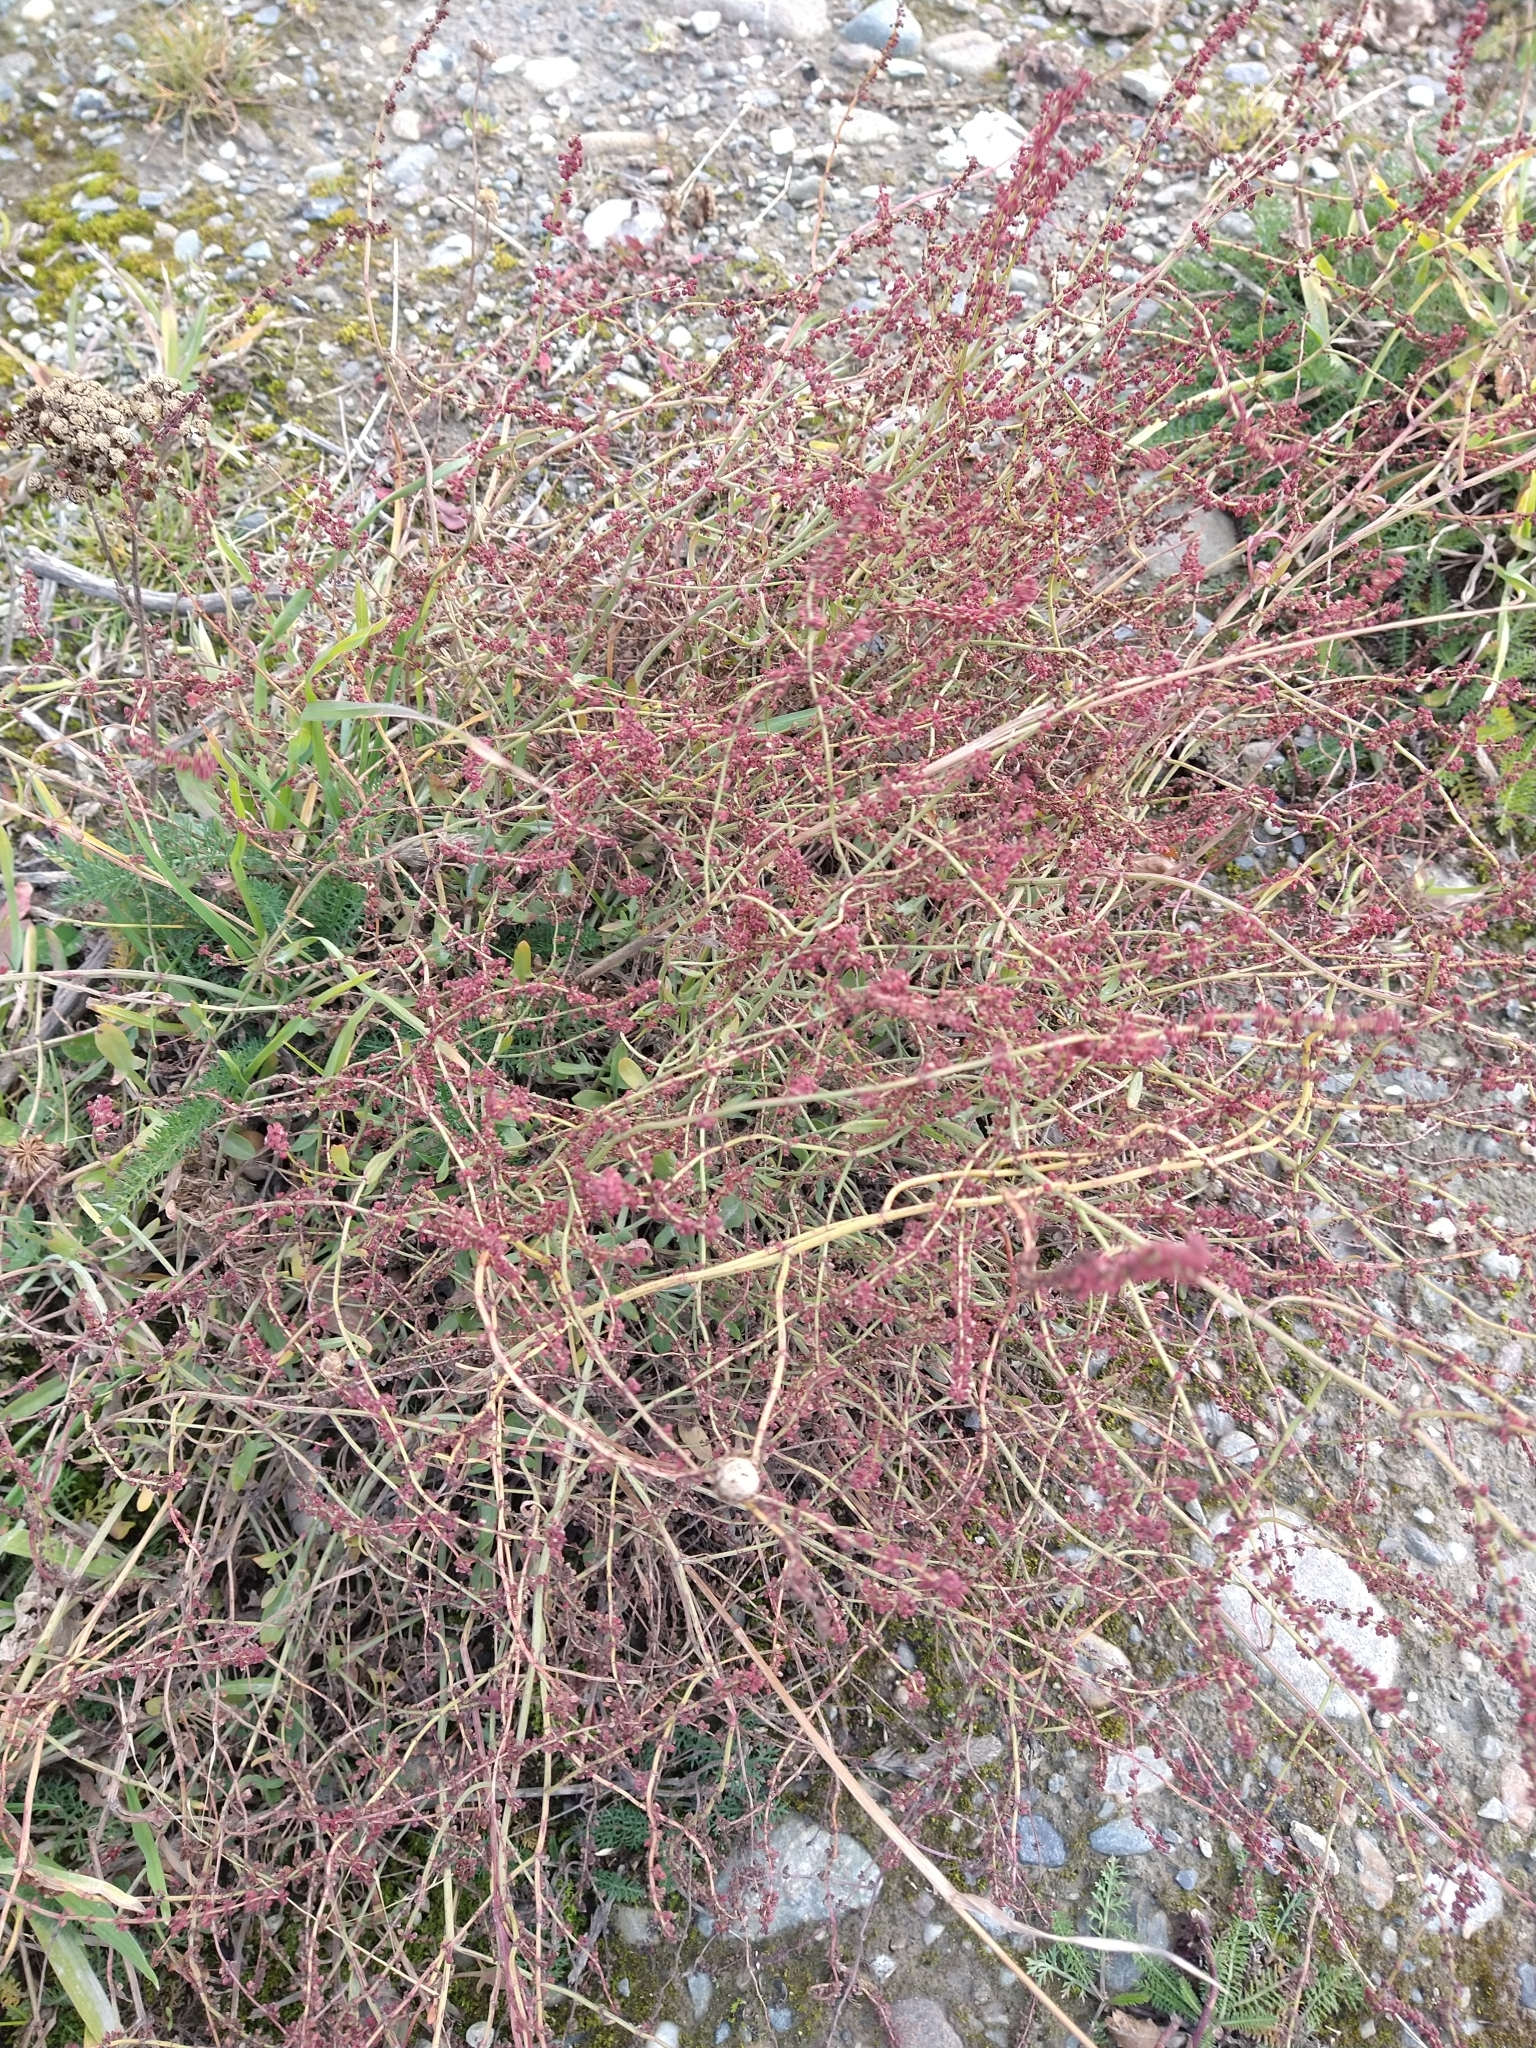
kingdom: Plantae
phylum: Tracheophyta
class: Magnoliopsida
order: Caryophyllales
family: Polygonaceae
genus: Rumex
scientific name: Rumex acetosella
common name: Common sheep sorrel
